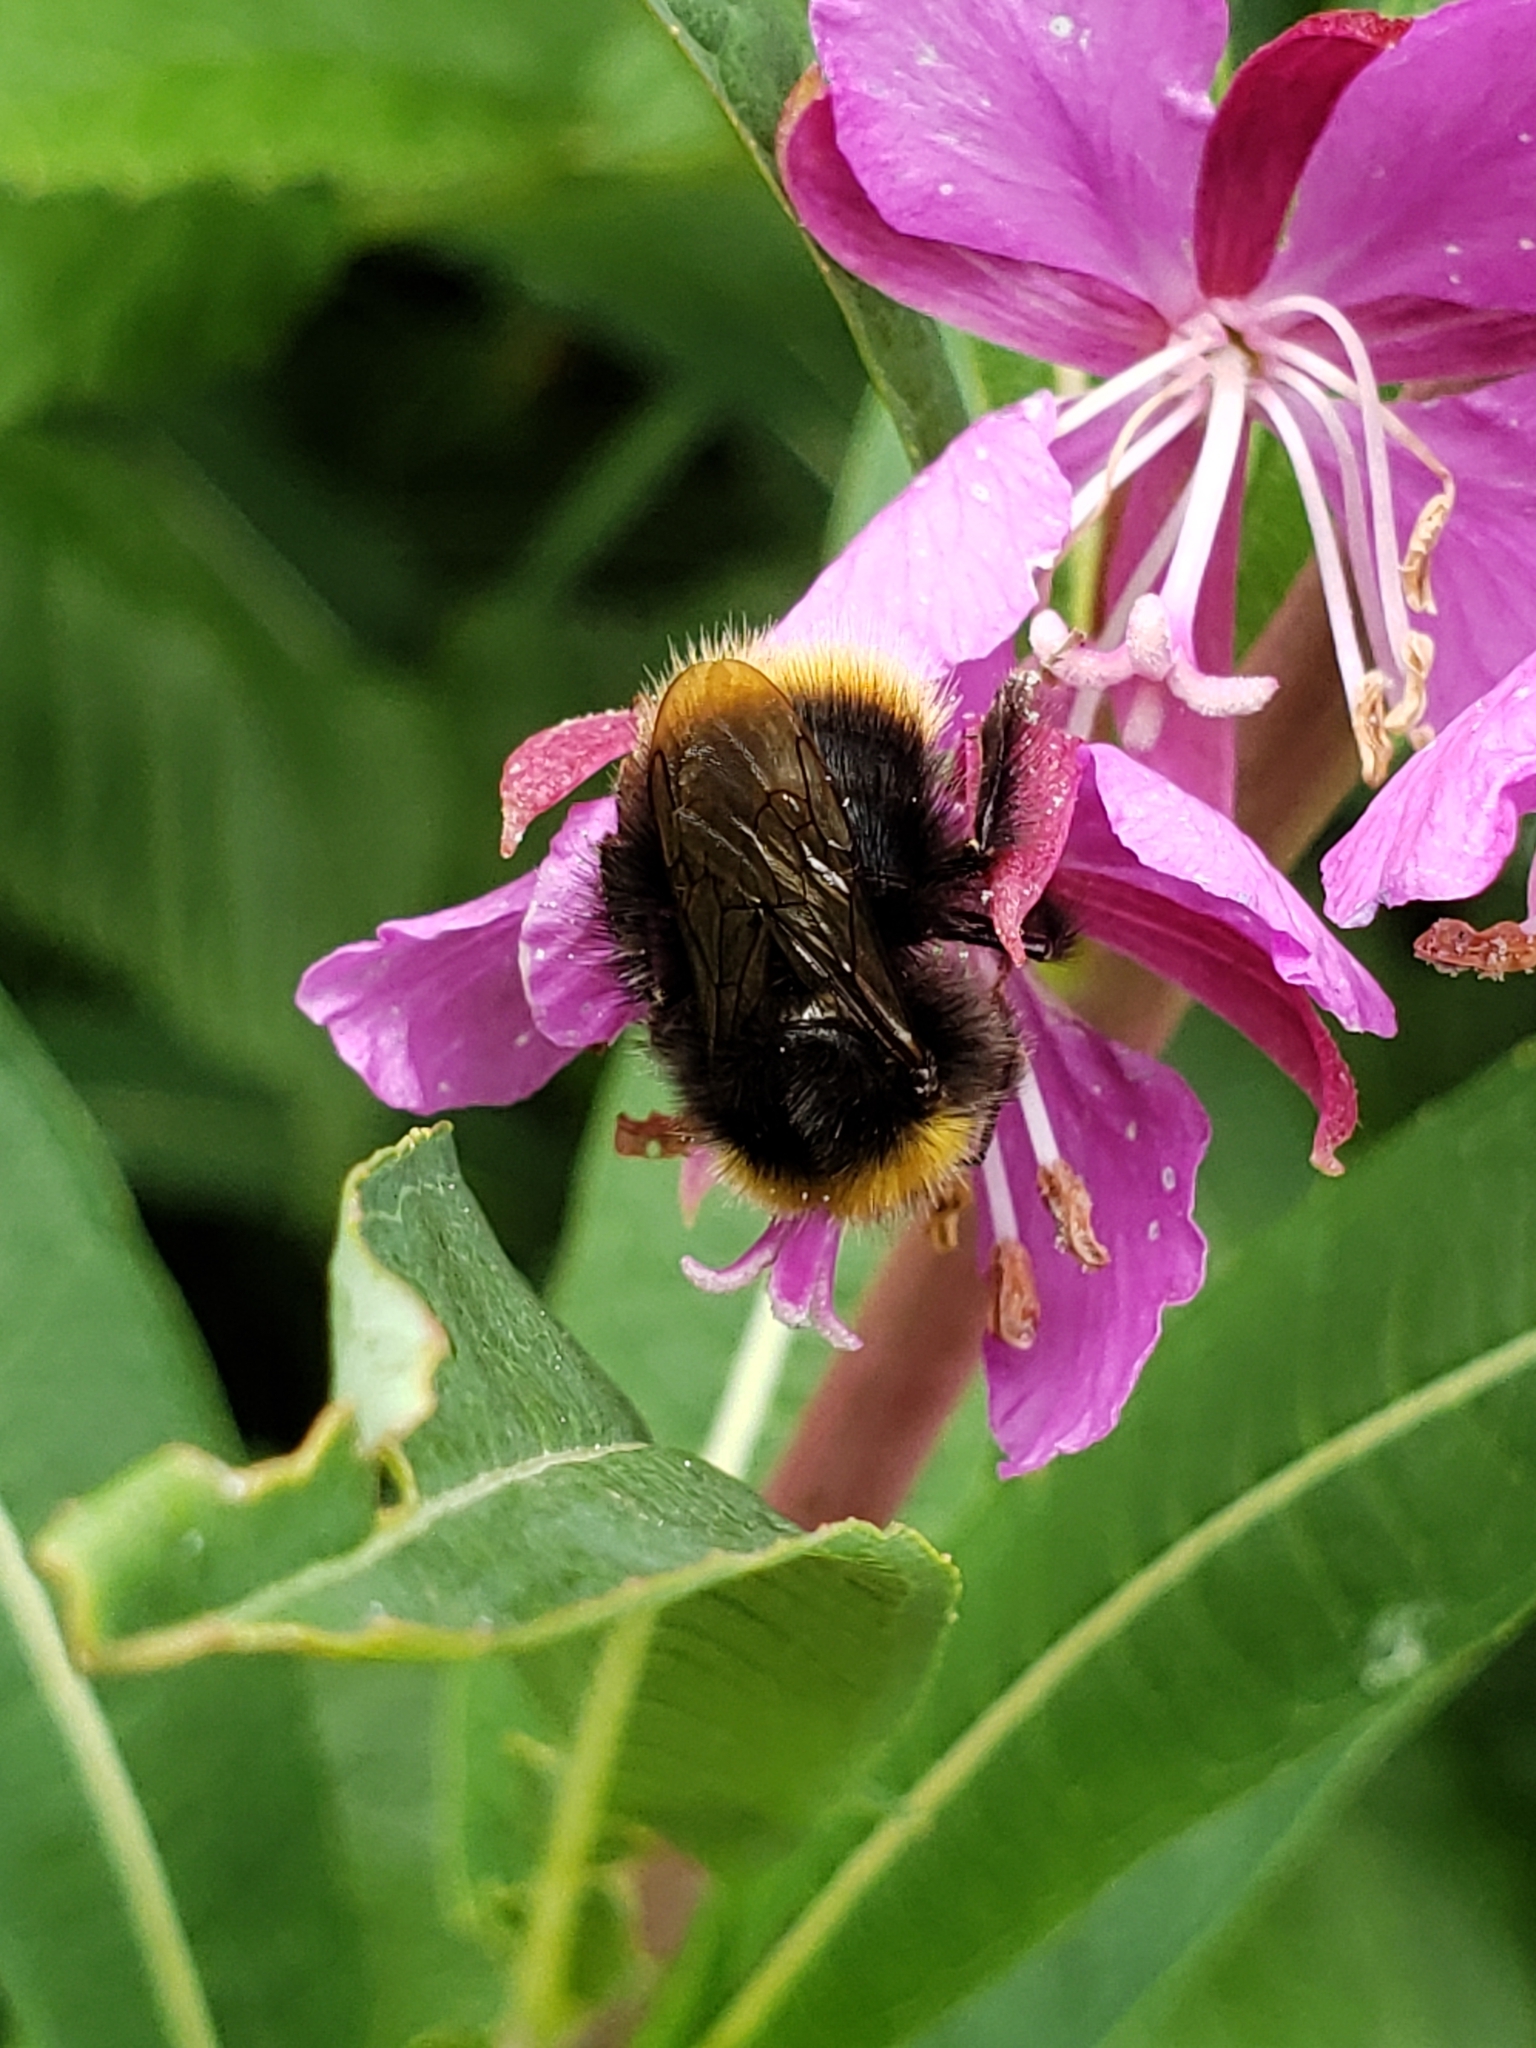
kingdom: Animalia
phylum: Arthropoda
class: Insecta
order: Hymenoptera
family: Apidae
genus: Bombus
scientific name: Bombus pratorum
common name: Early humble-bee
